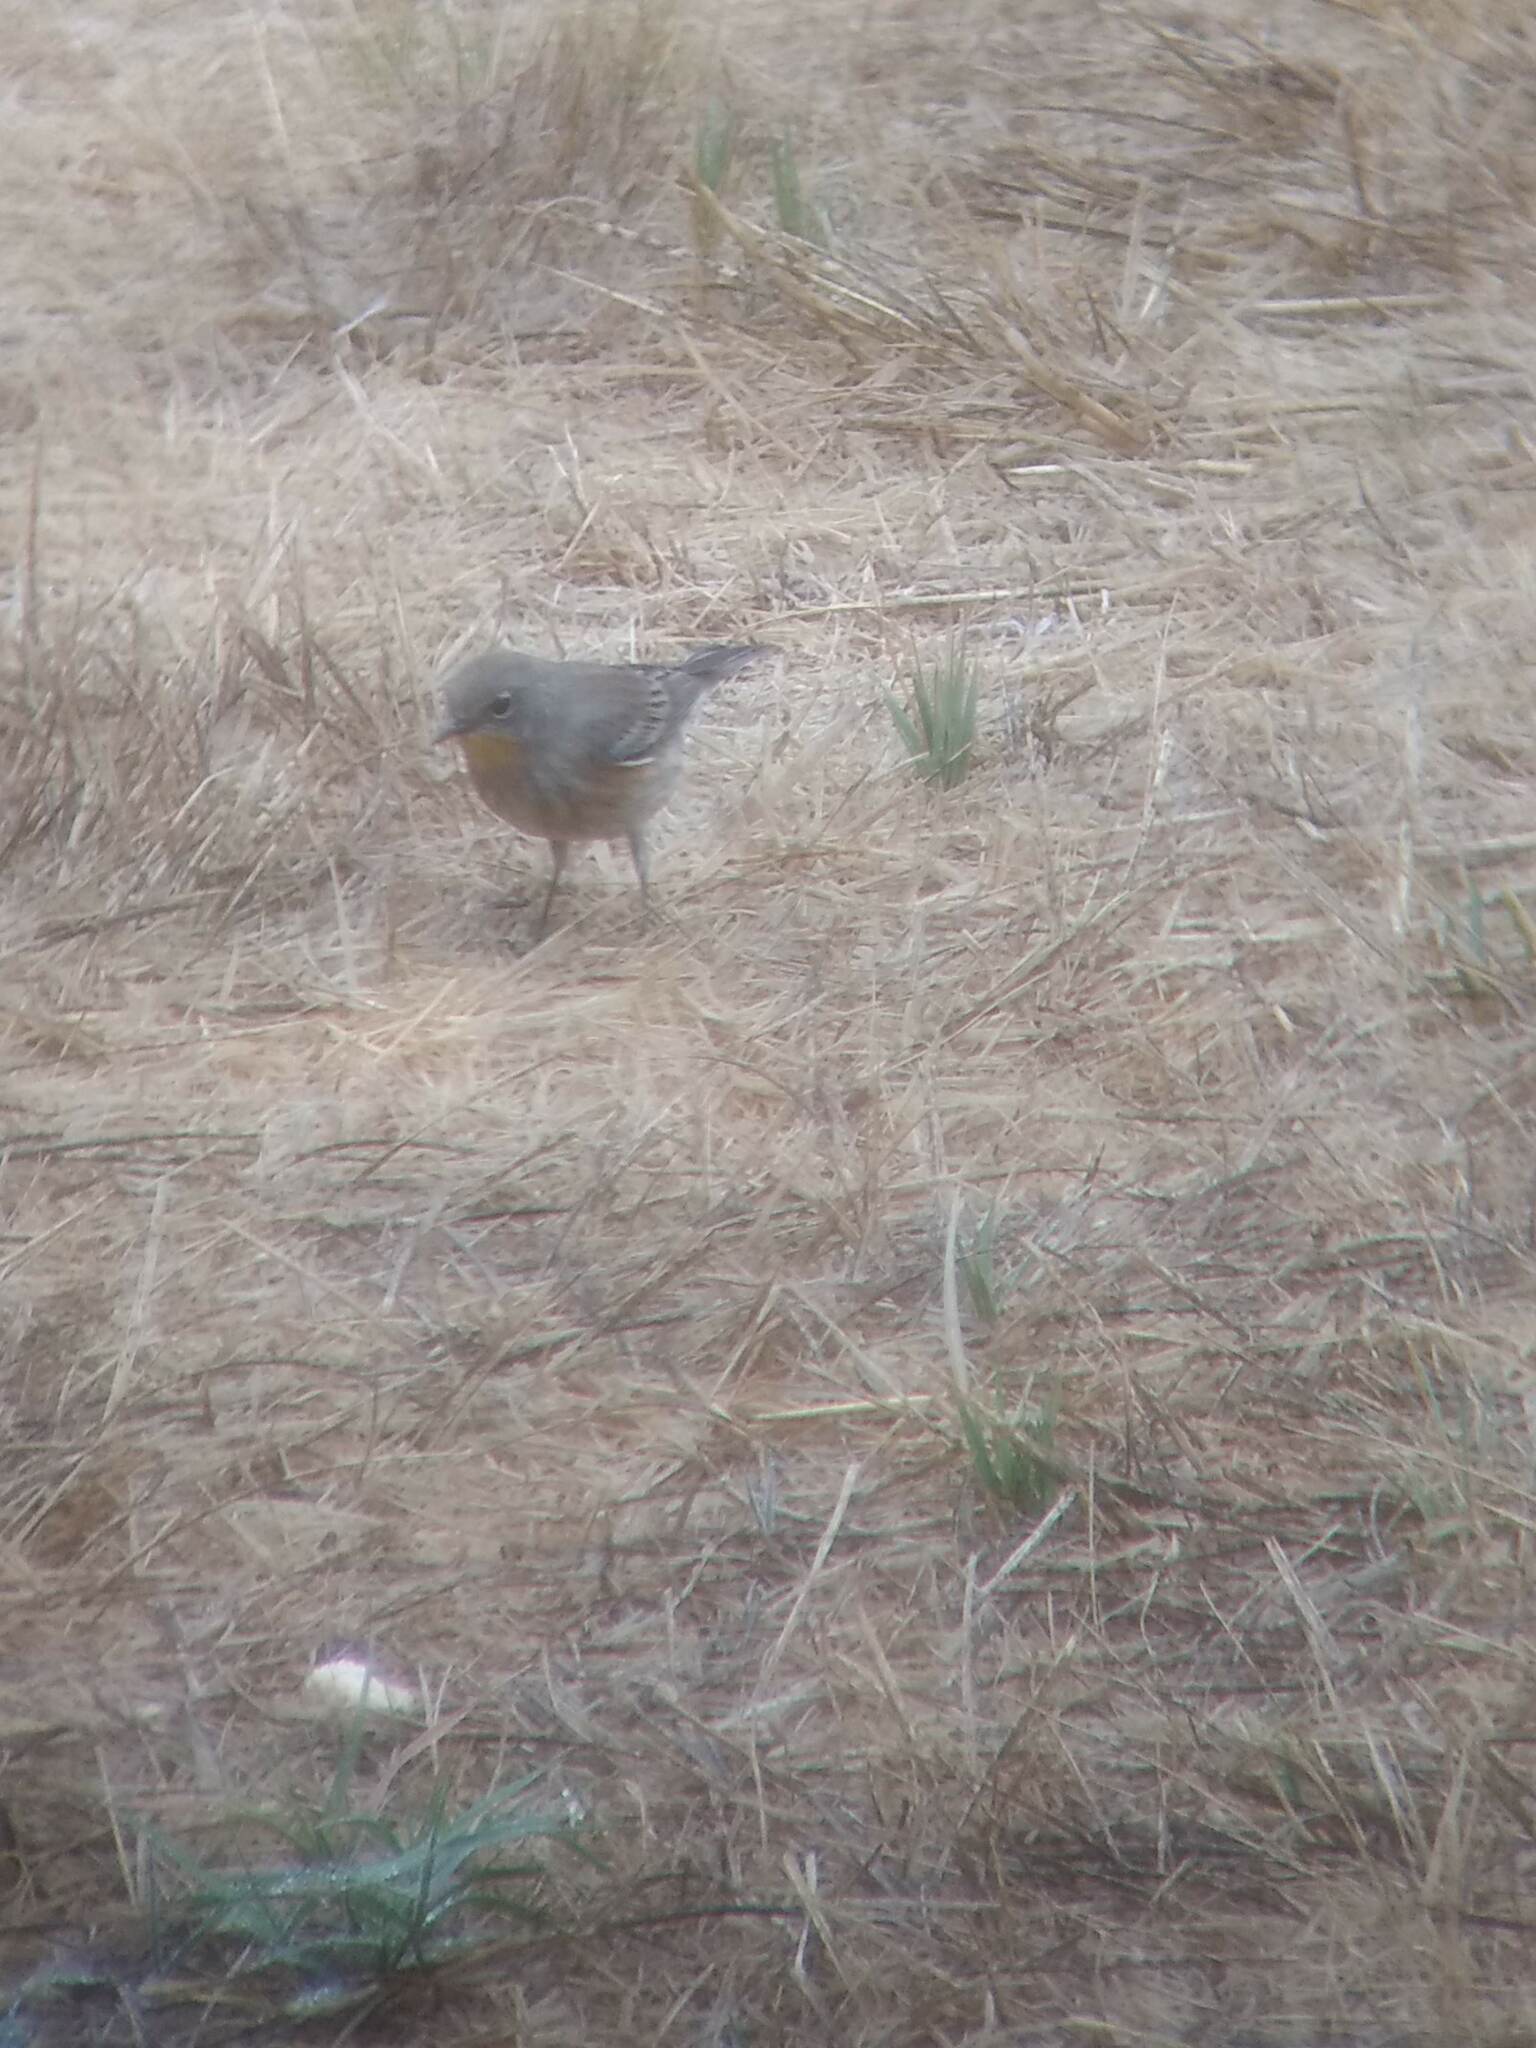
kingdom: Animalia
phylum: Chordata
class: Aves
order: Passeriformes
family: Parulidae
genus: Setophaga
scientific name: Setophaga coronata
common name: Myrtle warbler
